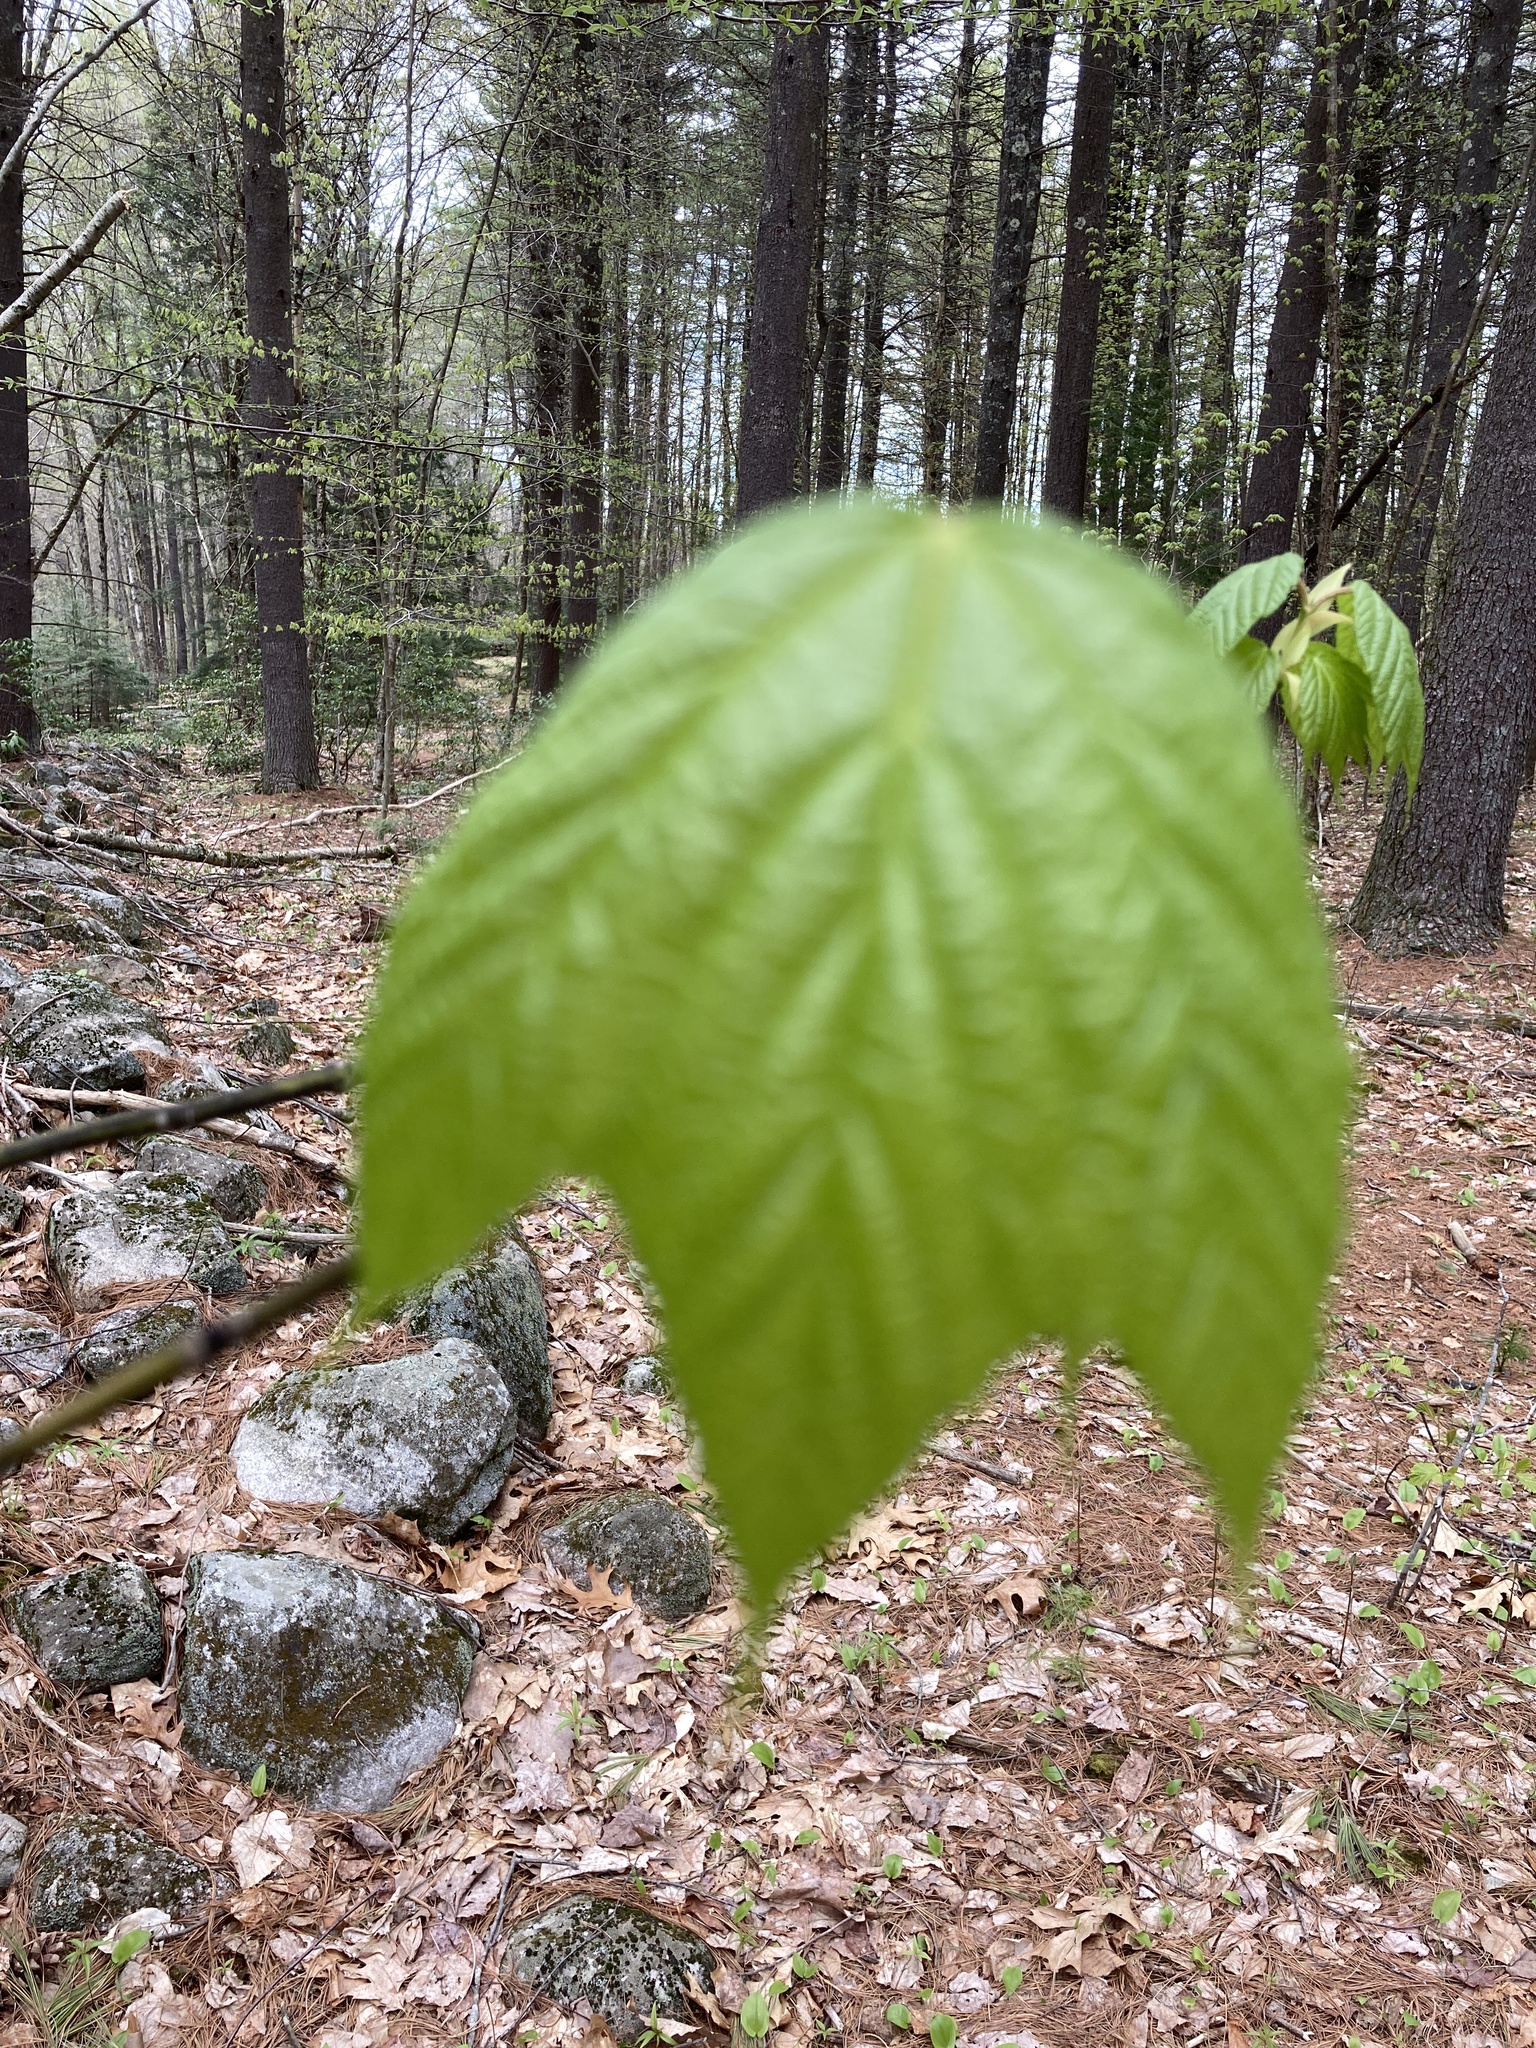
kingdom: Plantae
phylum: Tracheophyta
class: Magnoliopsida
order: Sapindales
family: Sapindaceae
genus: Acer
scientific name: Acer pensylvanicum
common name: Moosewood
